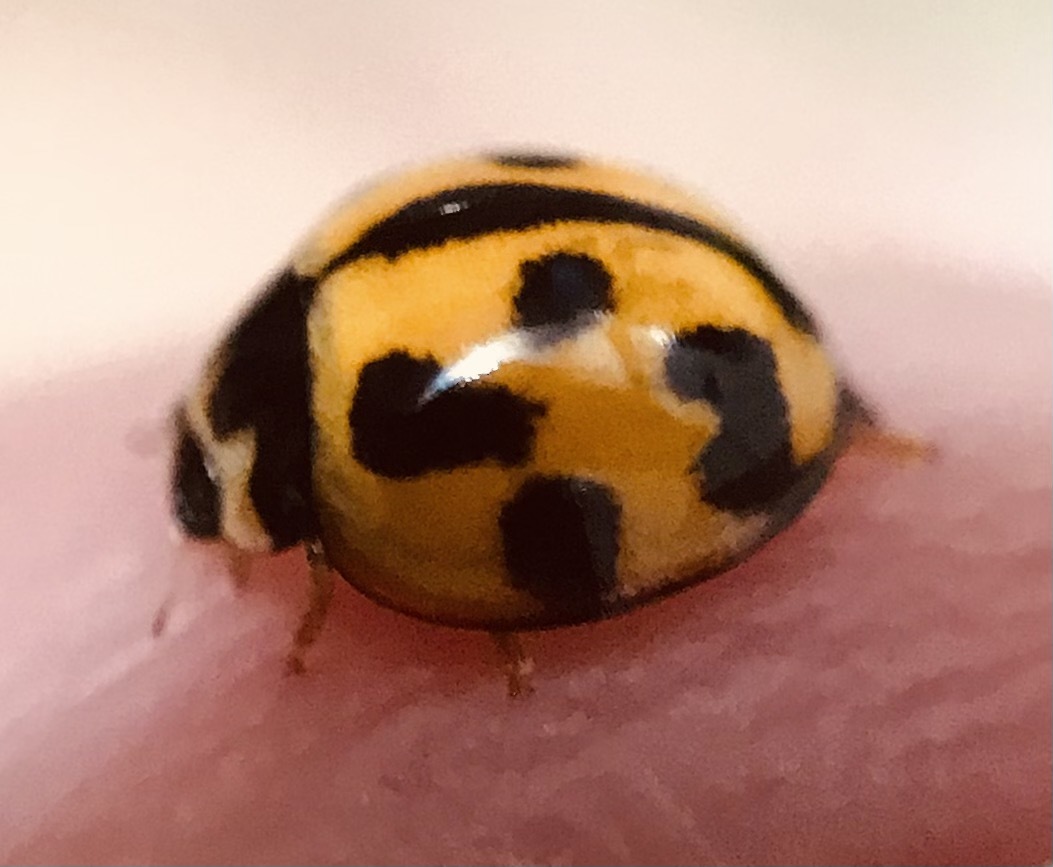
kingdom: Animalia
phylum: Arthropoda
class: Insecta
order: Coleoptera
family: Coccinellidae
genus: Coelophora
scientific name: Coelophora inaequalis
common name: Common australian lady beetle
